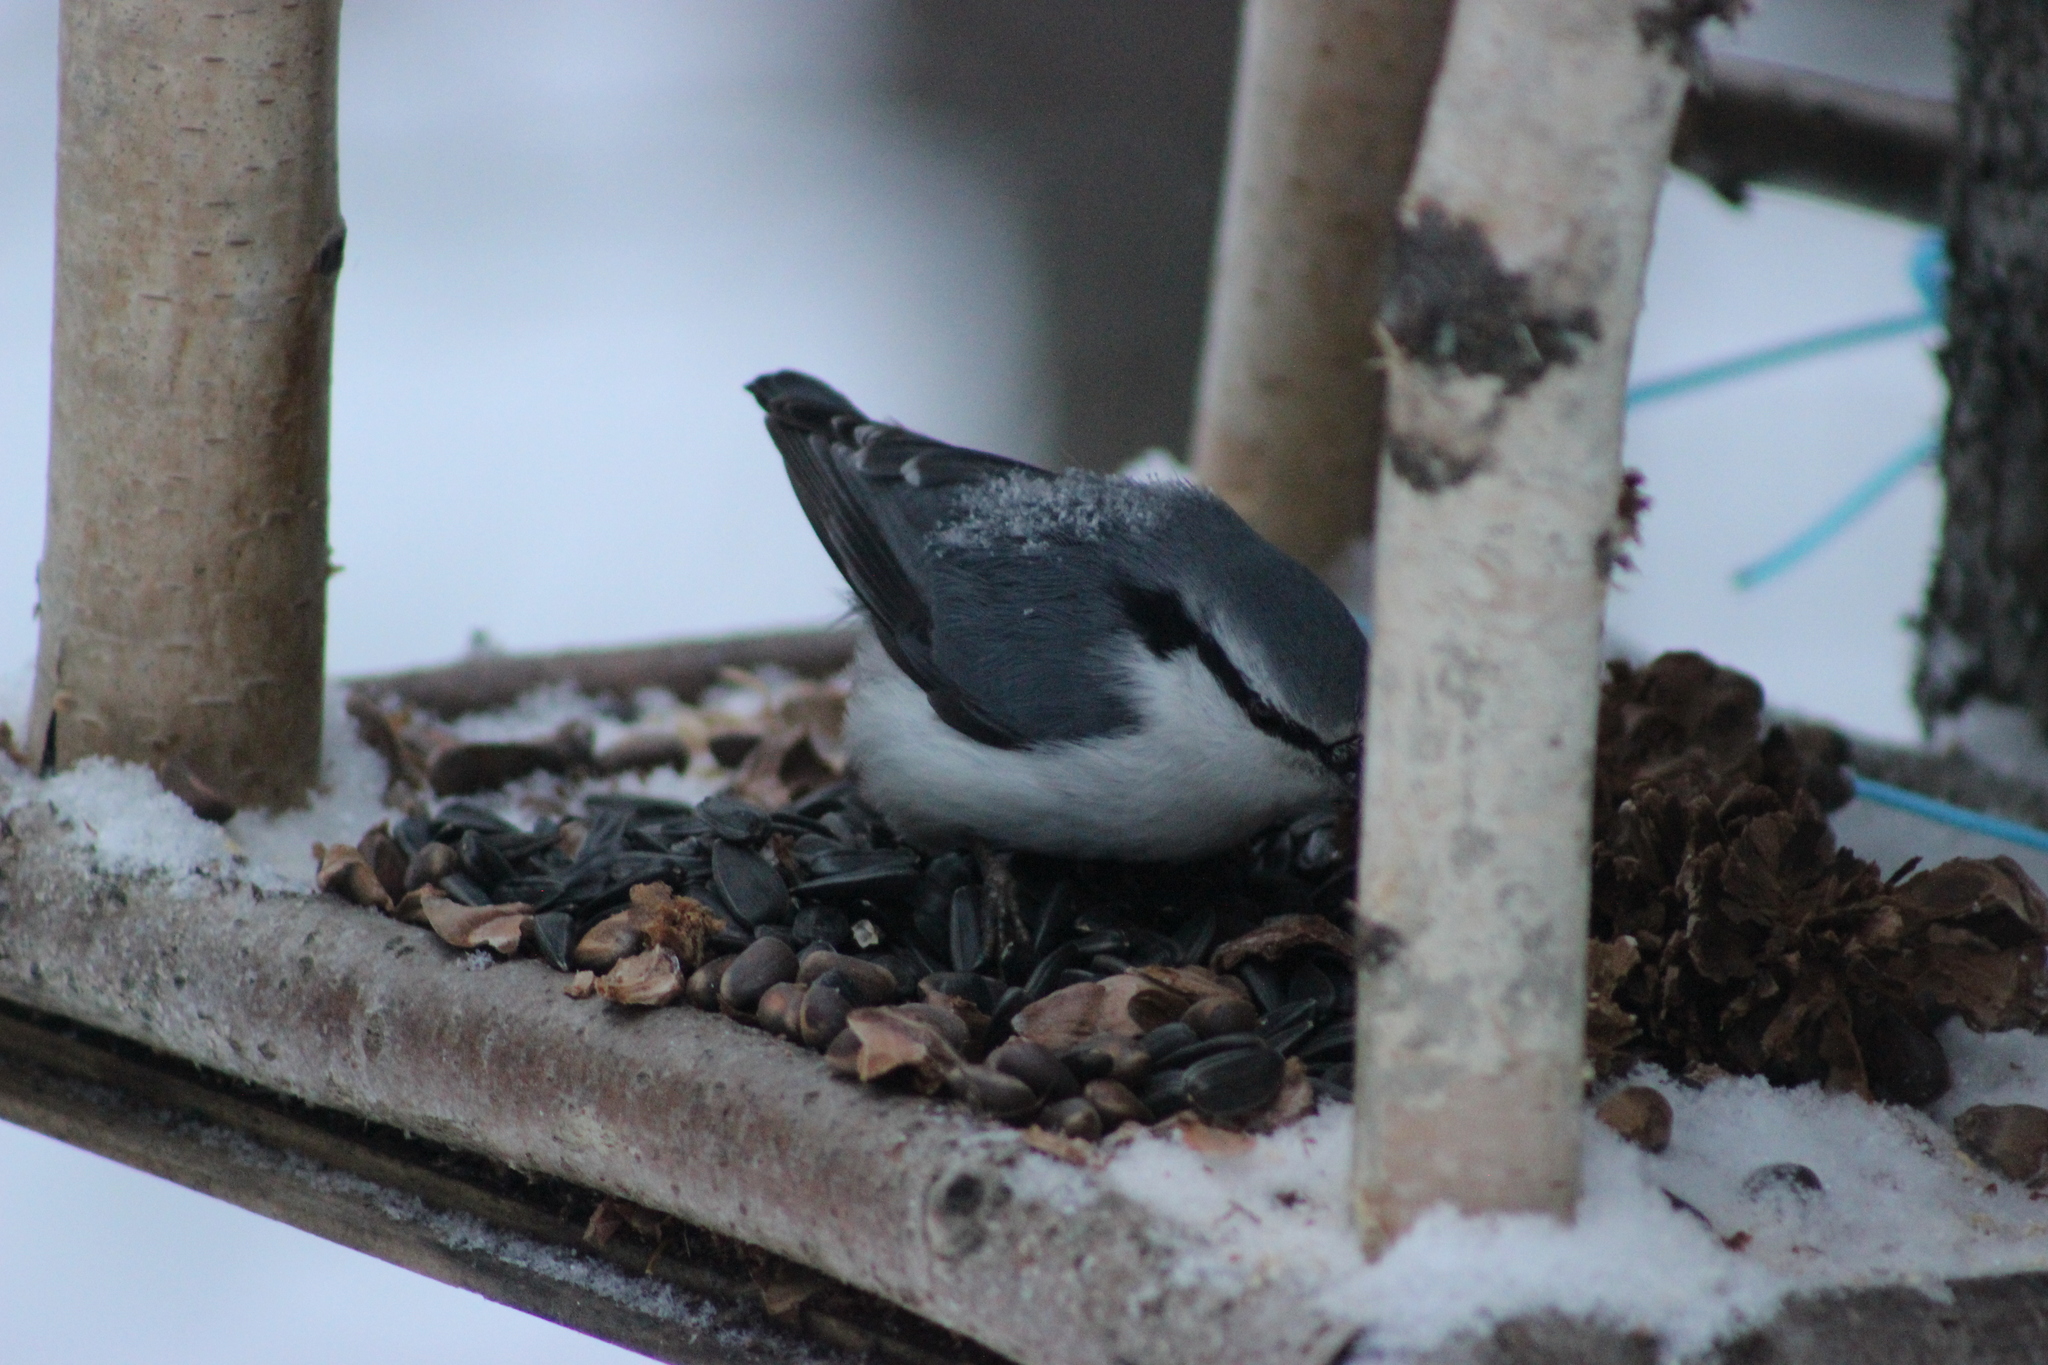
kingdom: Animalia
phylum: Chordata
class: Aves
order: Passeriformes
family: Sittidae
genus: Sitta
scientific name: Sitta europaea
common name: Eurasian nuthatch
